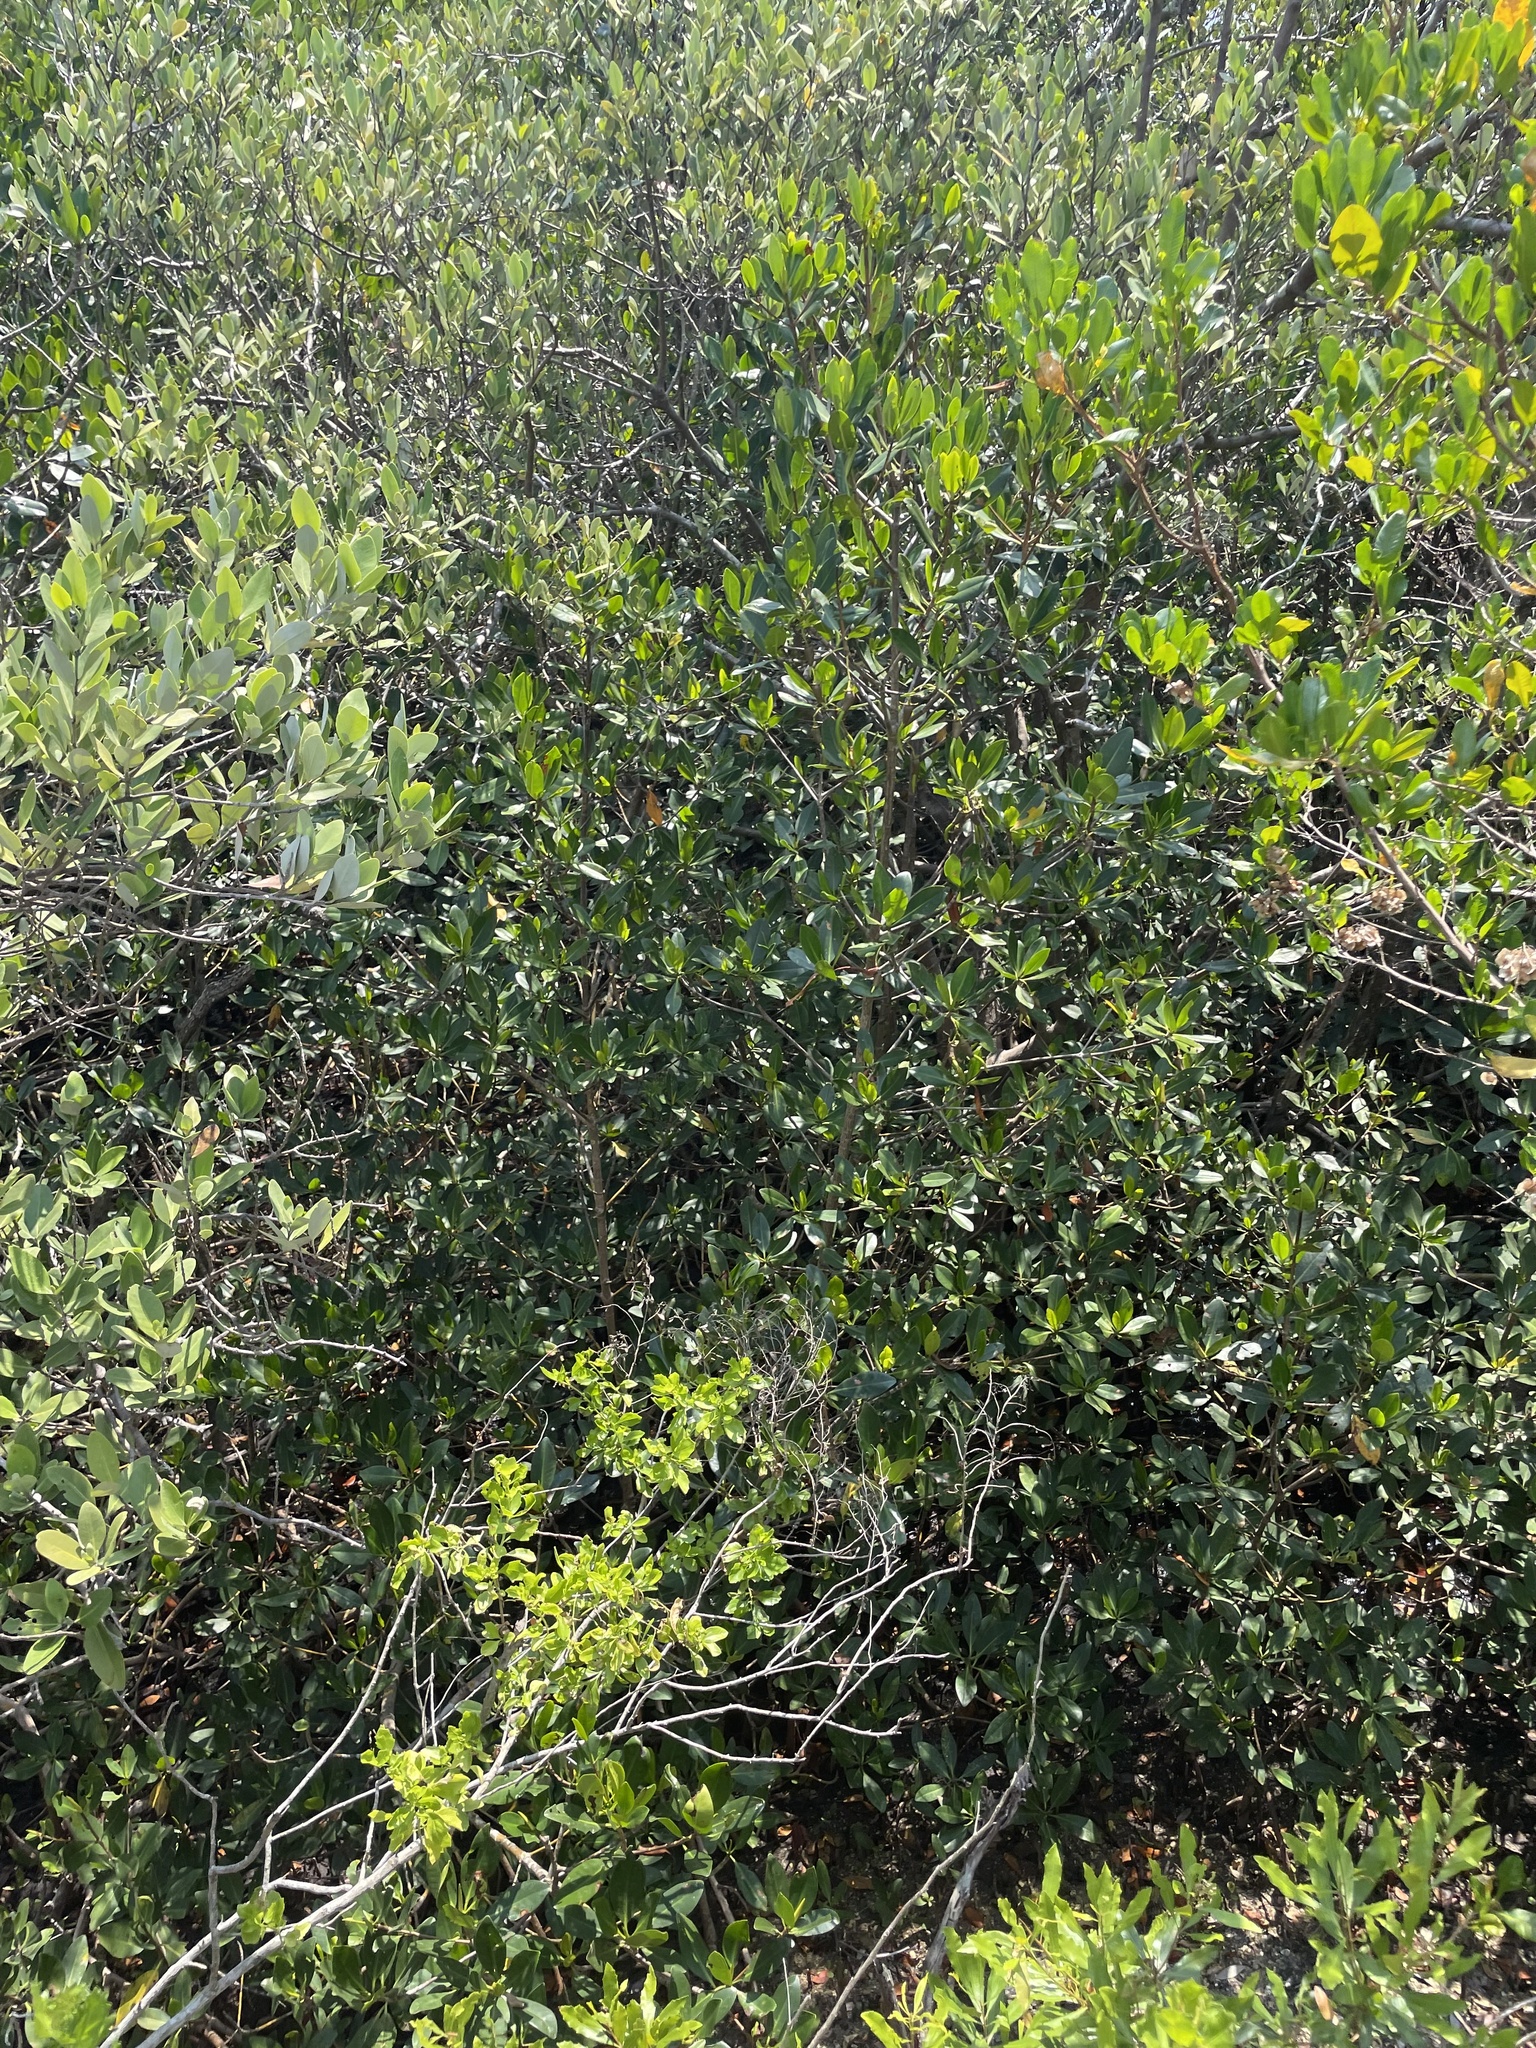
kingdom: Plantae
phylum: Tracheophyta
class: Magnoliopsida
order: Malpighiales
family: Rhizophoraceae
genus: Rhizophora
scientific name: Rhizophora mangle
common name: Red mangrove
